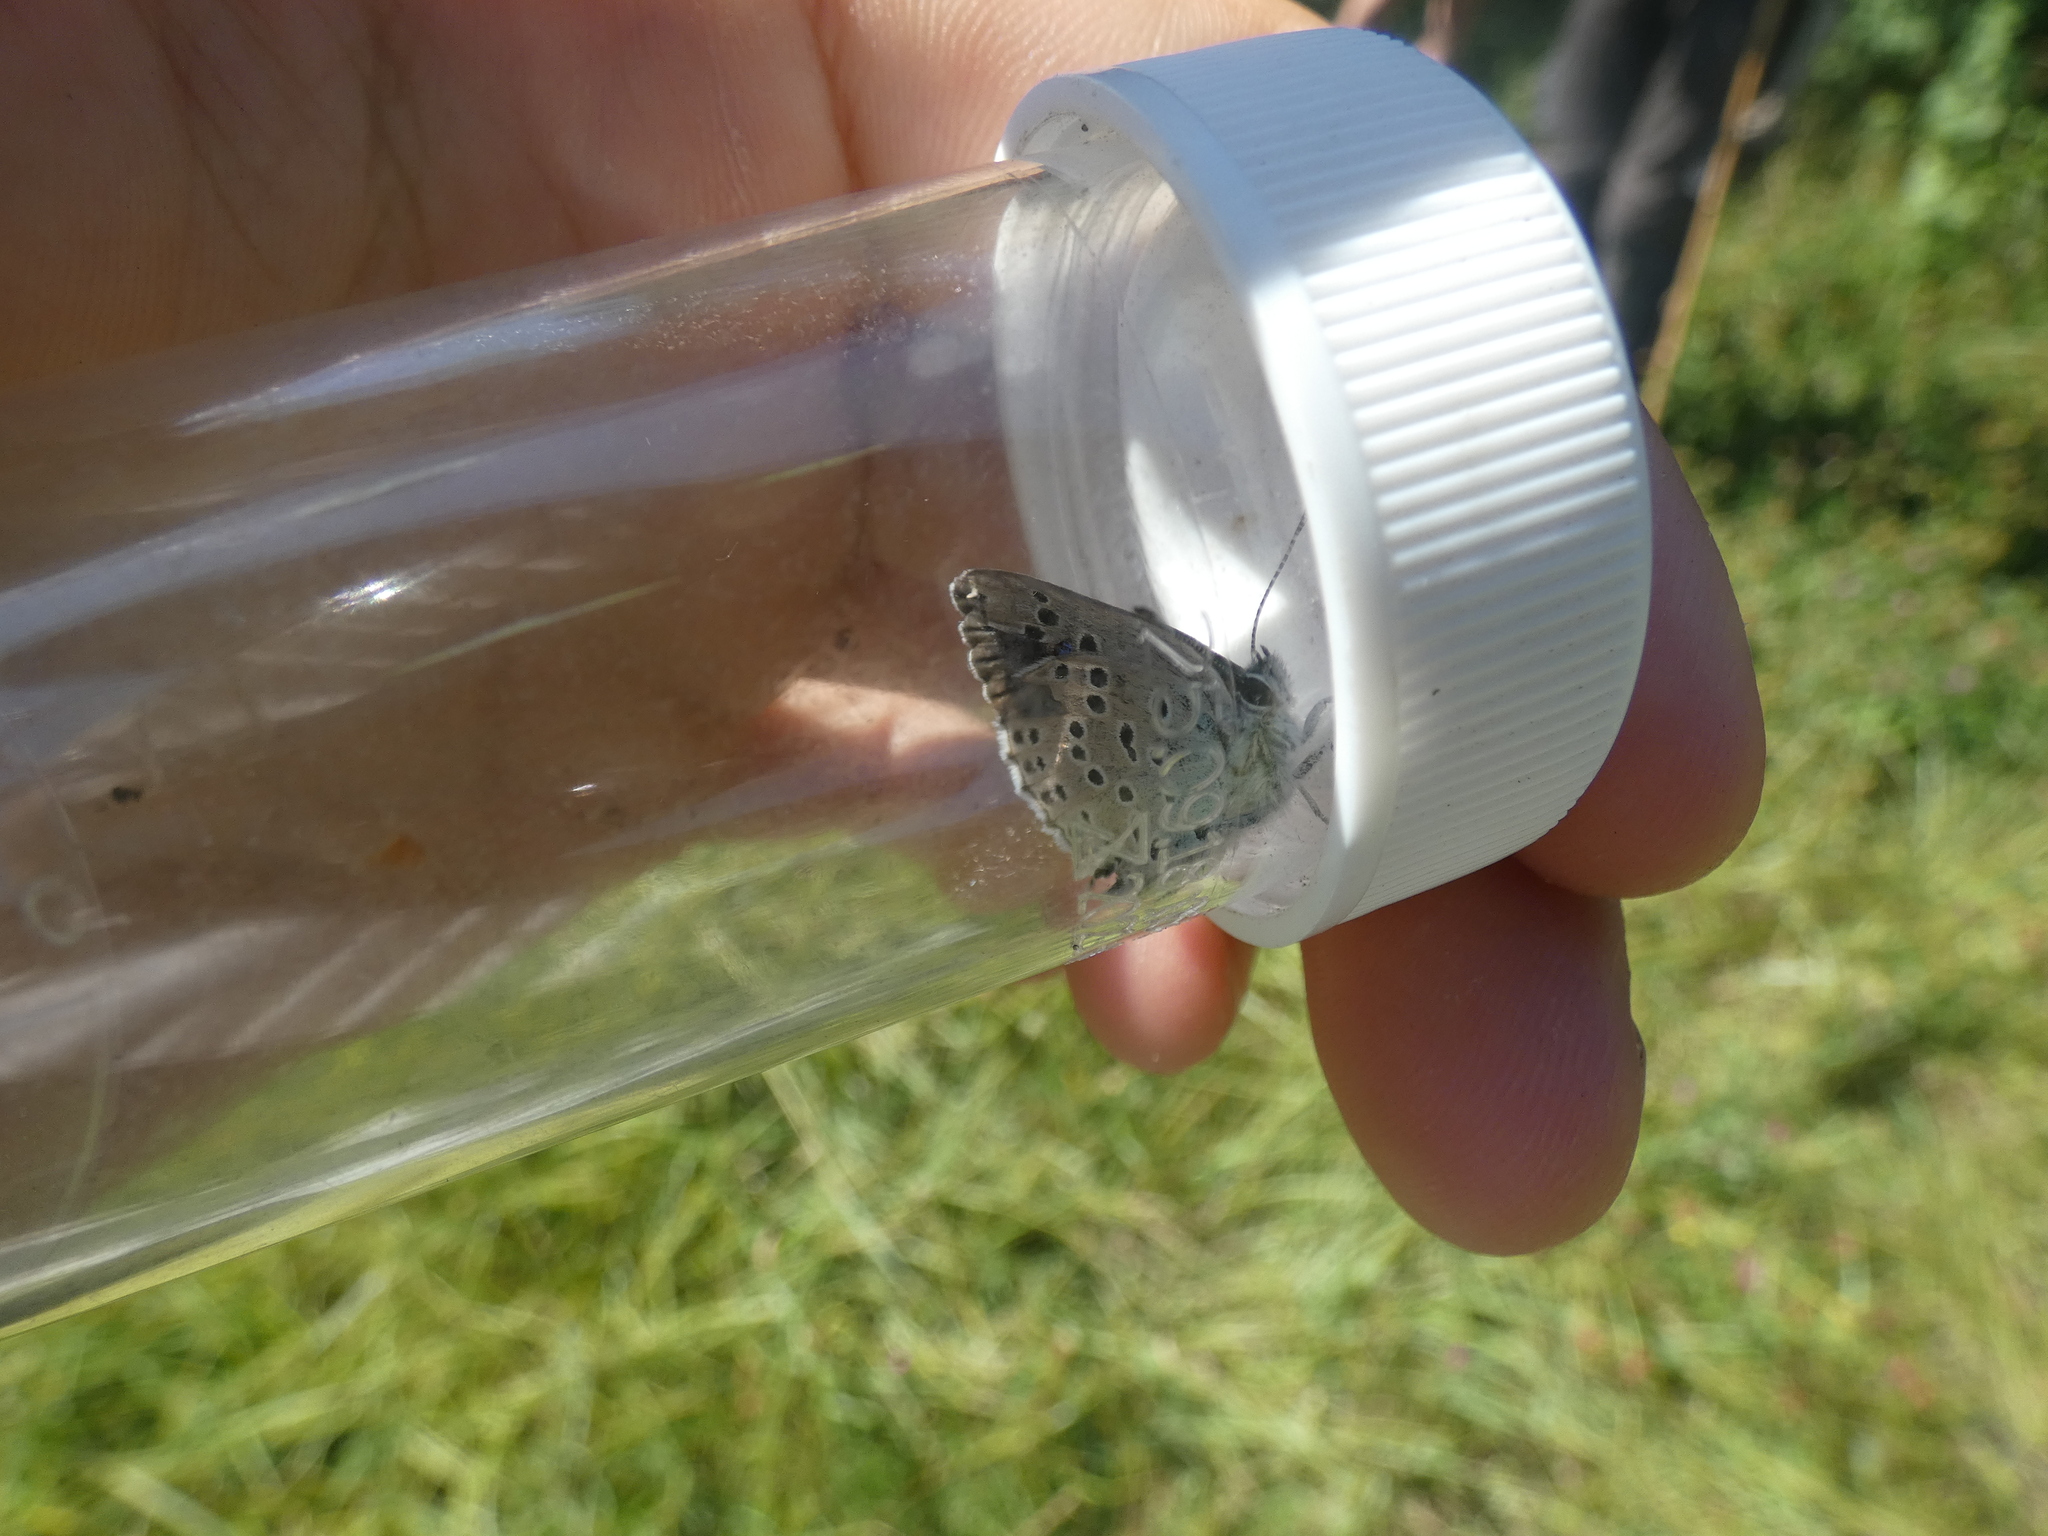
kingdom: Animalia
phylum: Arthropoda
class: Insecta
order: Lepidoptera
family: Lycaenidae
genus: Maculinea
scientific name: Maculinea arion
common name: Large blue
